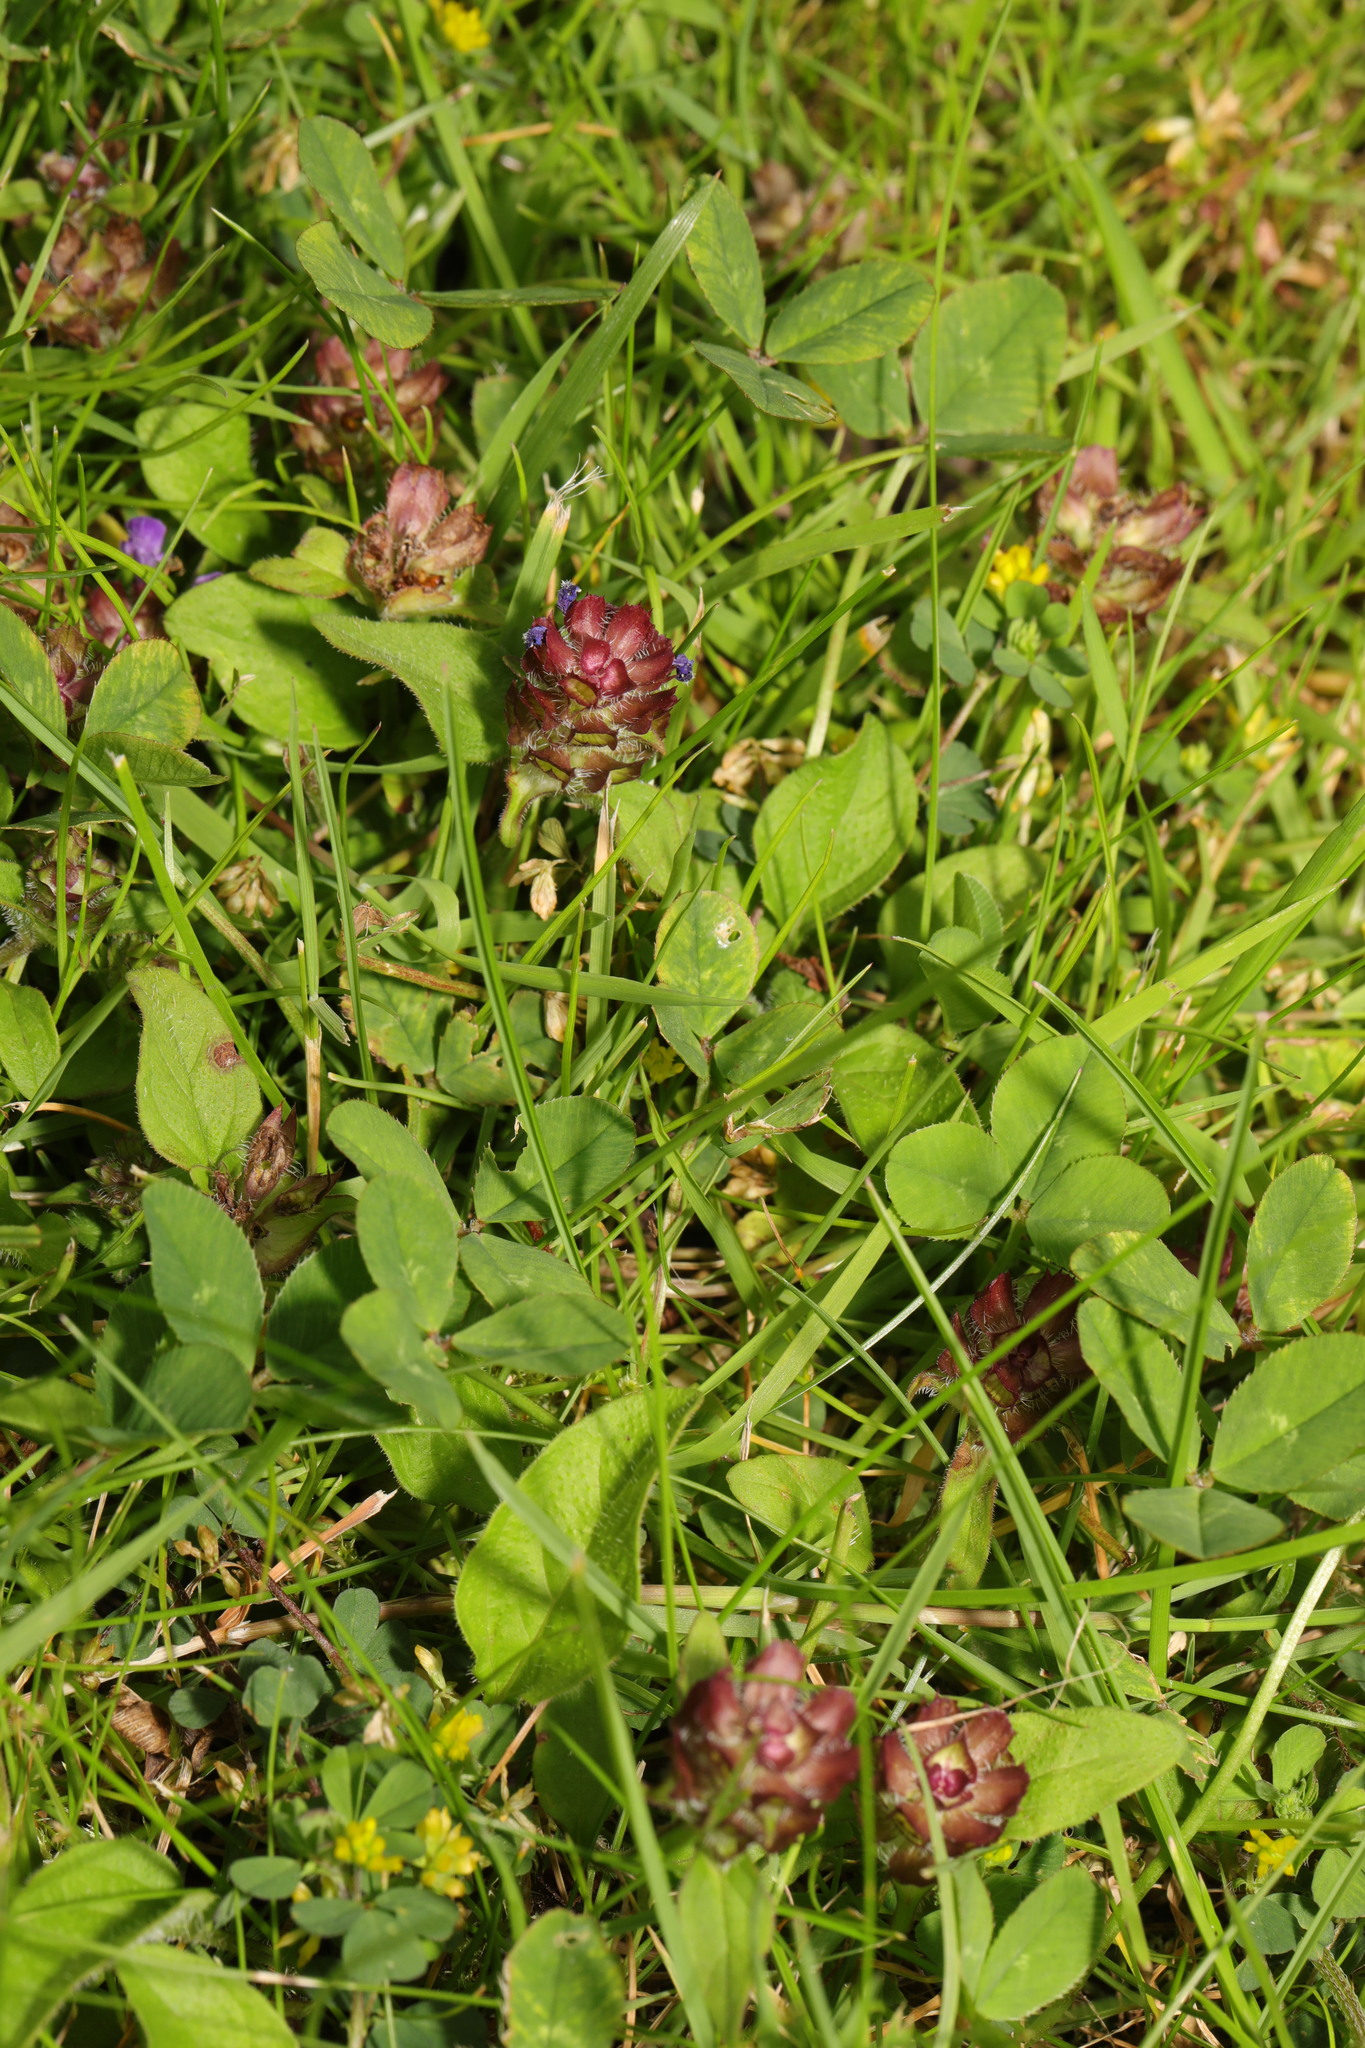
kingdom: Plantae
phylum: Tracheophyta
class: Magnoliopsida
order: Lamiales
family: Lamiaceae
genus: Prunella
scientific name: Prunella vulgaris
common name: Heal-all
